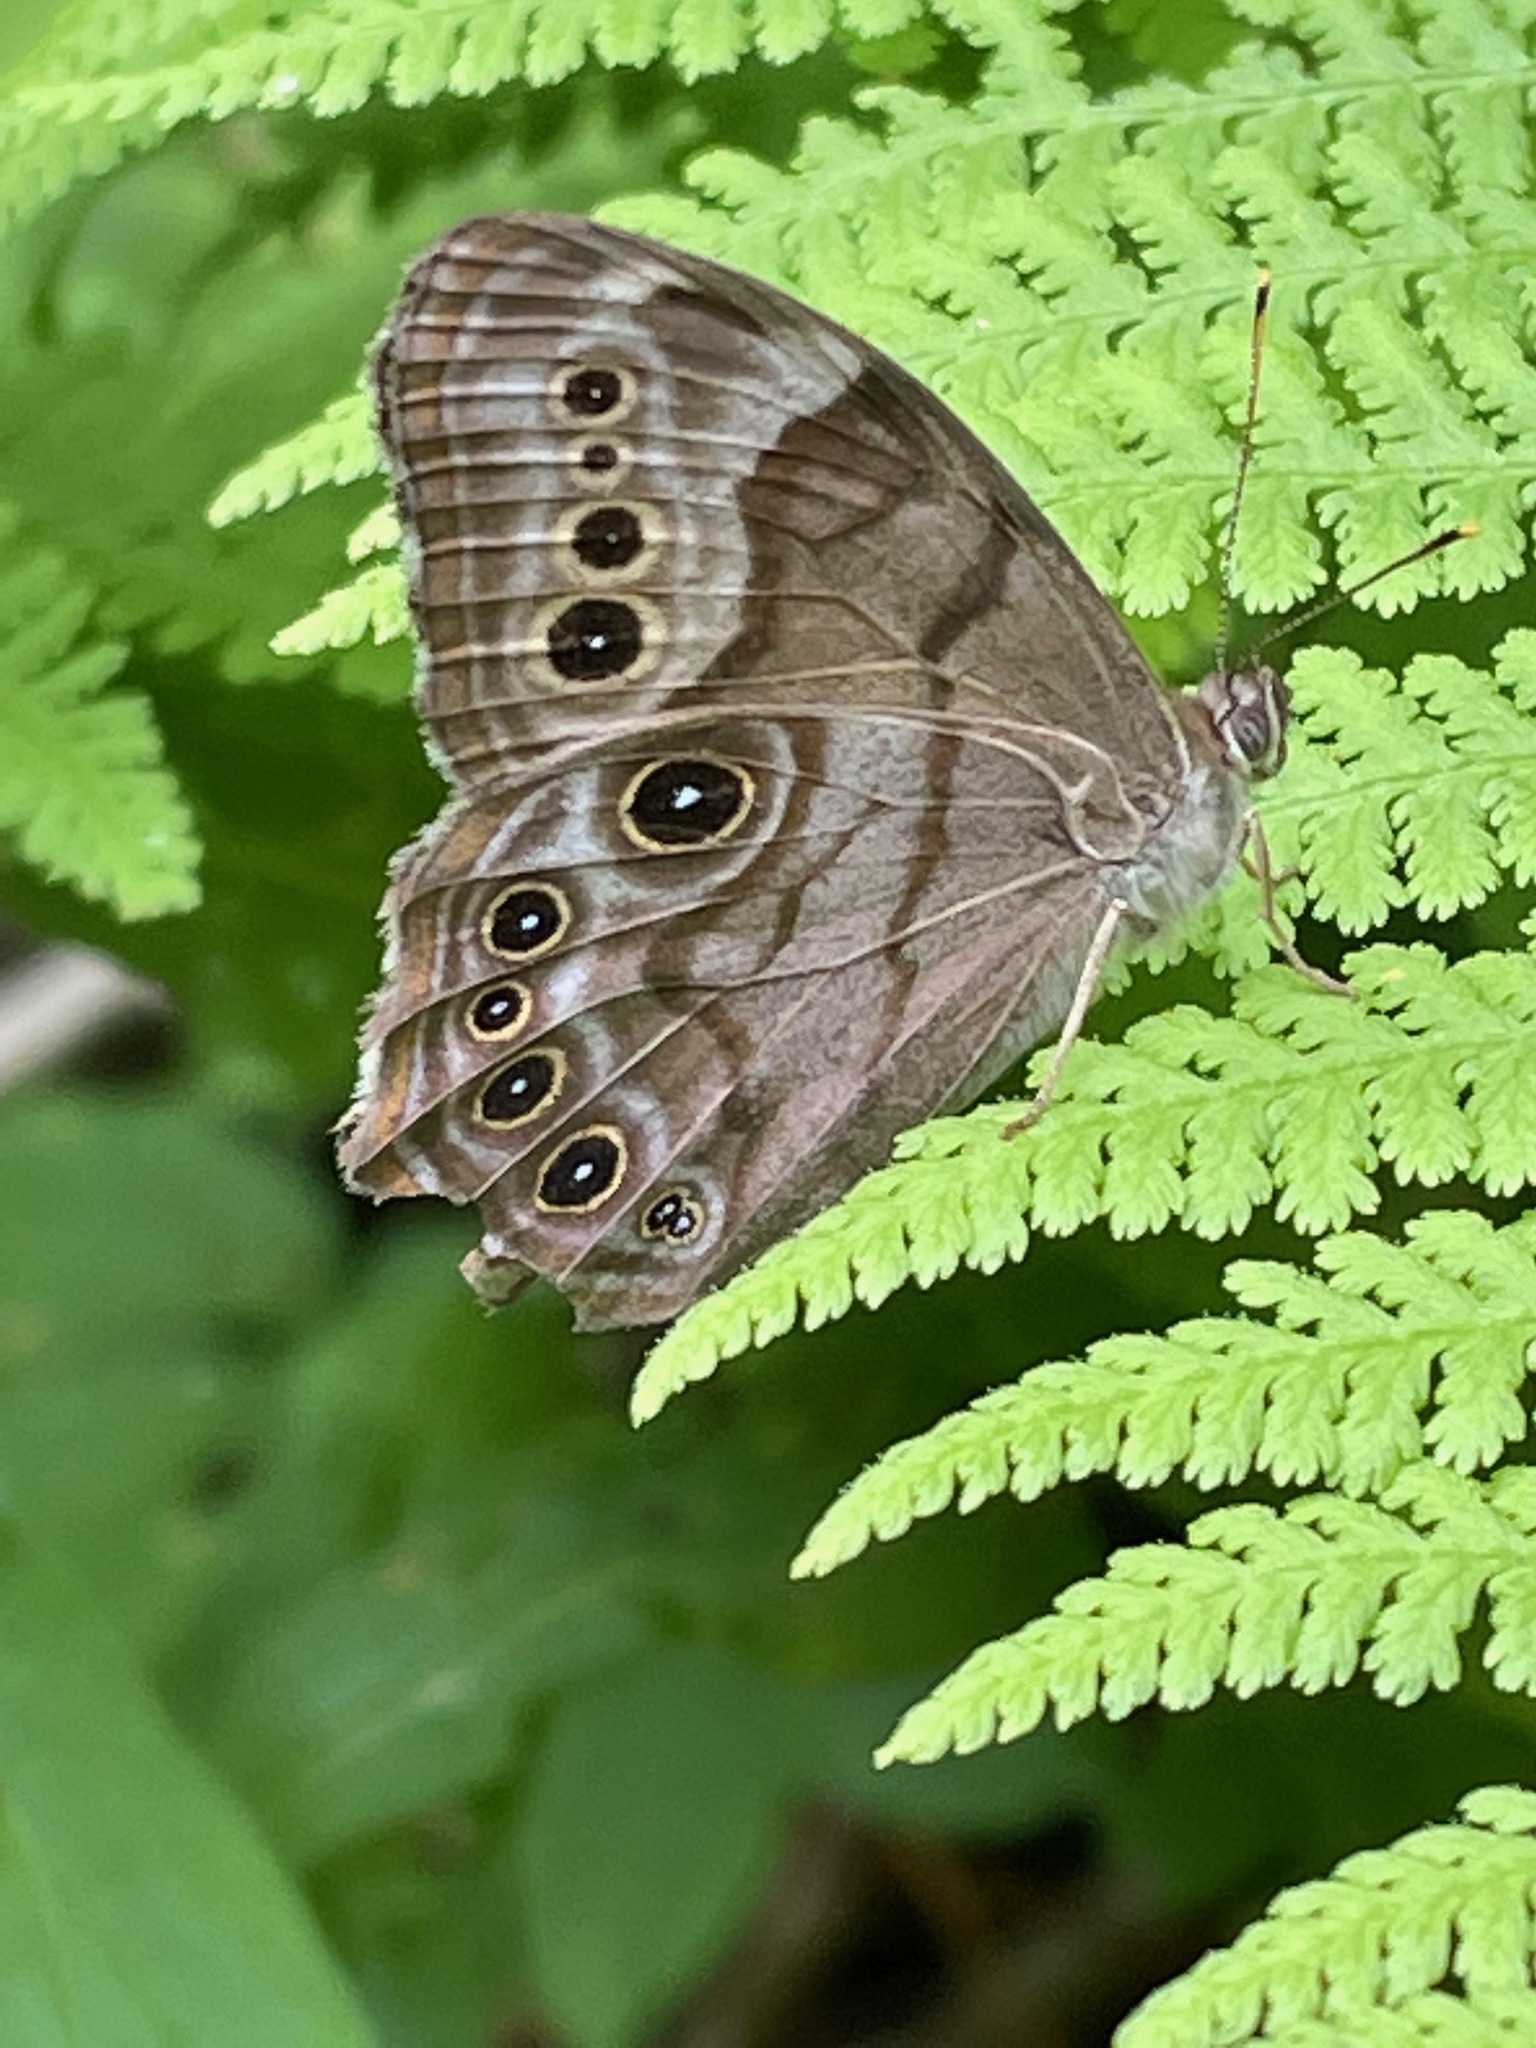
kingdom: Animalia
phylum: Arthropoda
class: Insecta
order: Lepidoptera
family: Nymphalidae
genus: Lethe
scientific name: Lethe anthedon
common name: Northern pearly-eye
